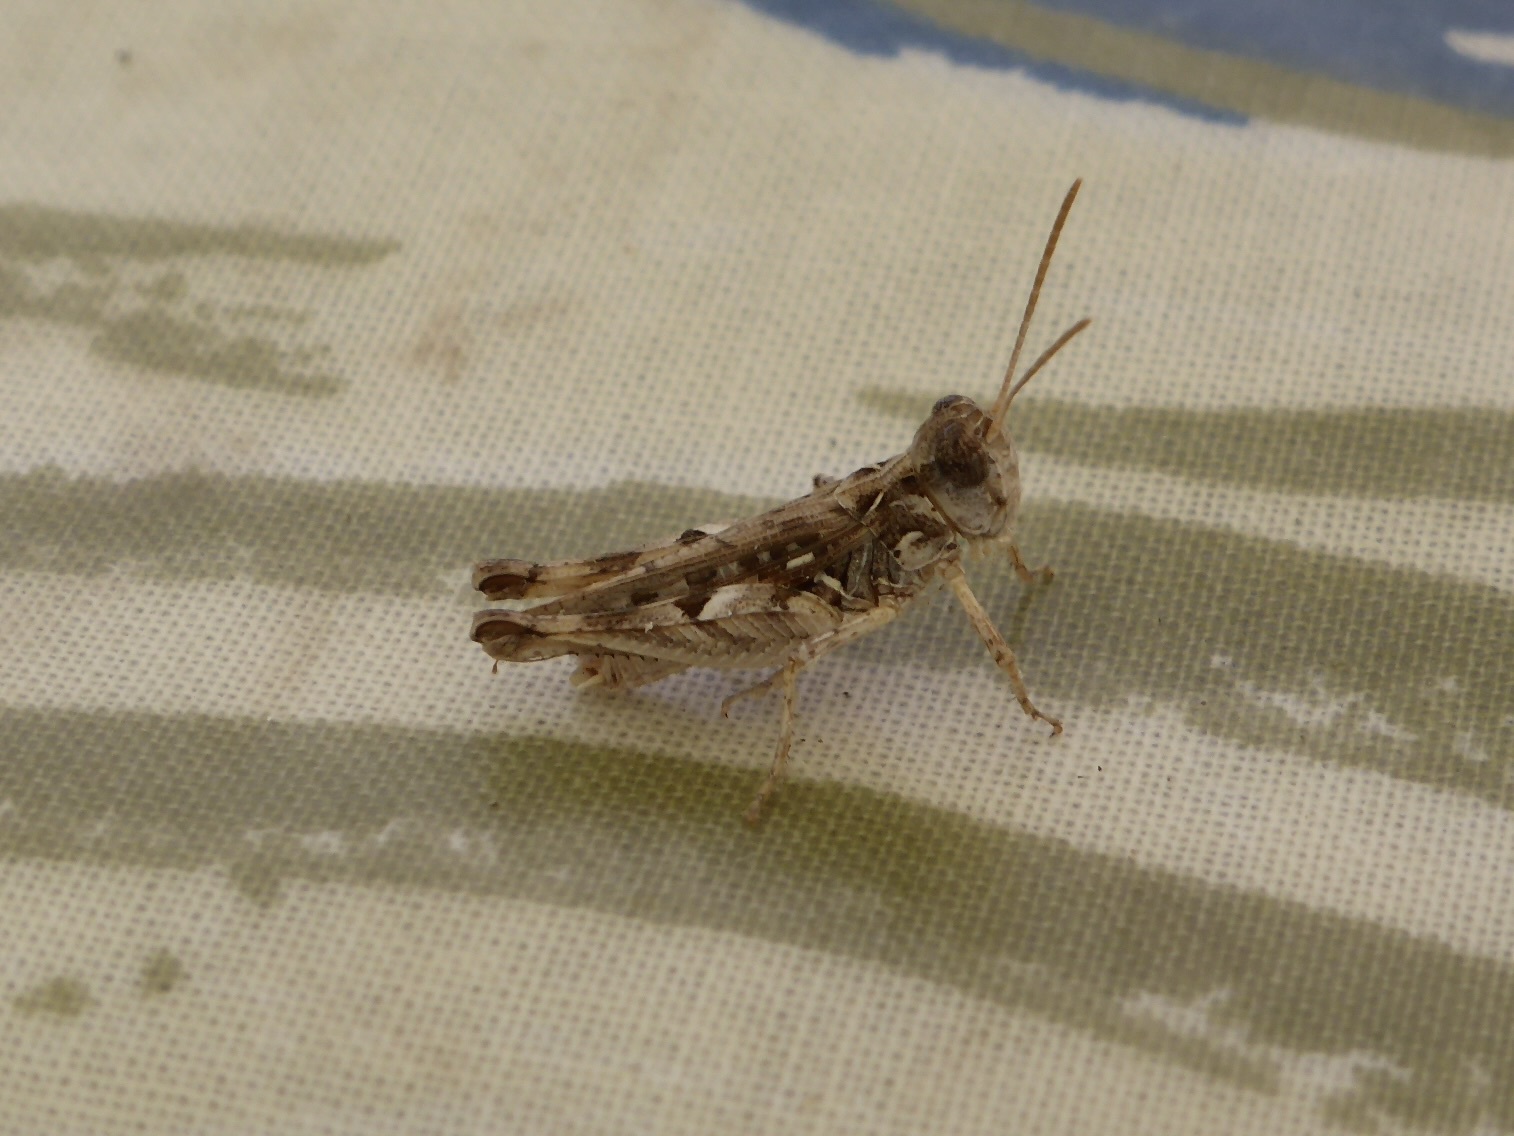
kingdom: Animalia
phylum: Arthropoda
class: Insecta
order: Orthoptera
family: Acrididae
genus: Dociostaurus
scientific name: Dociostaurus jagoi
